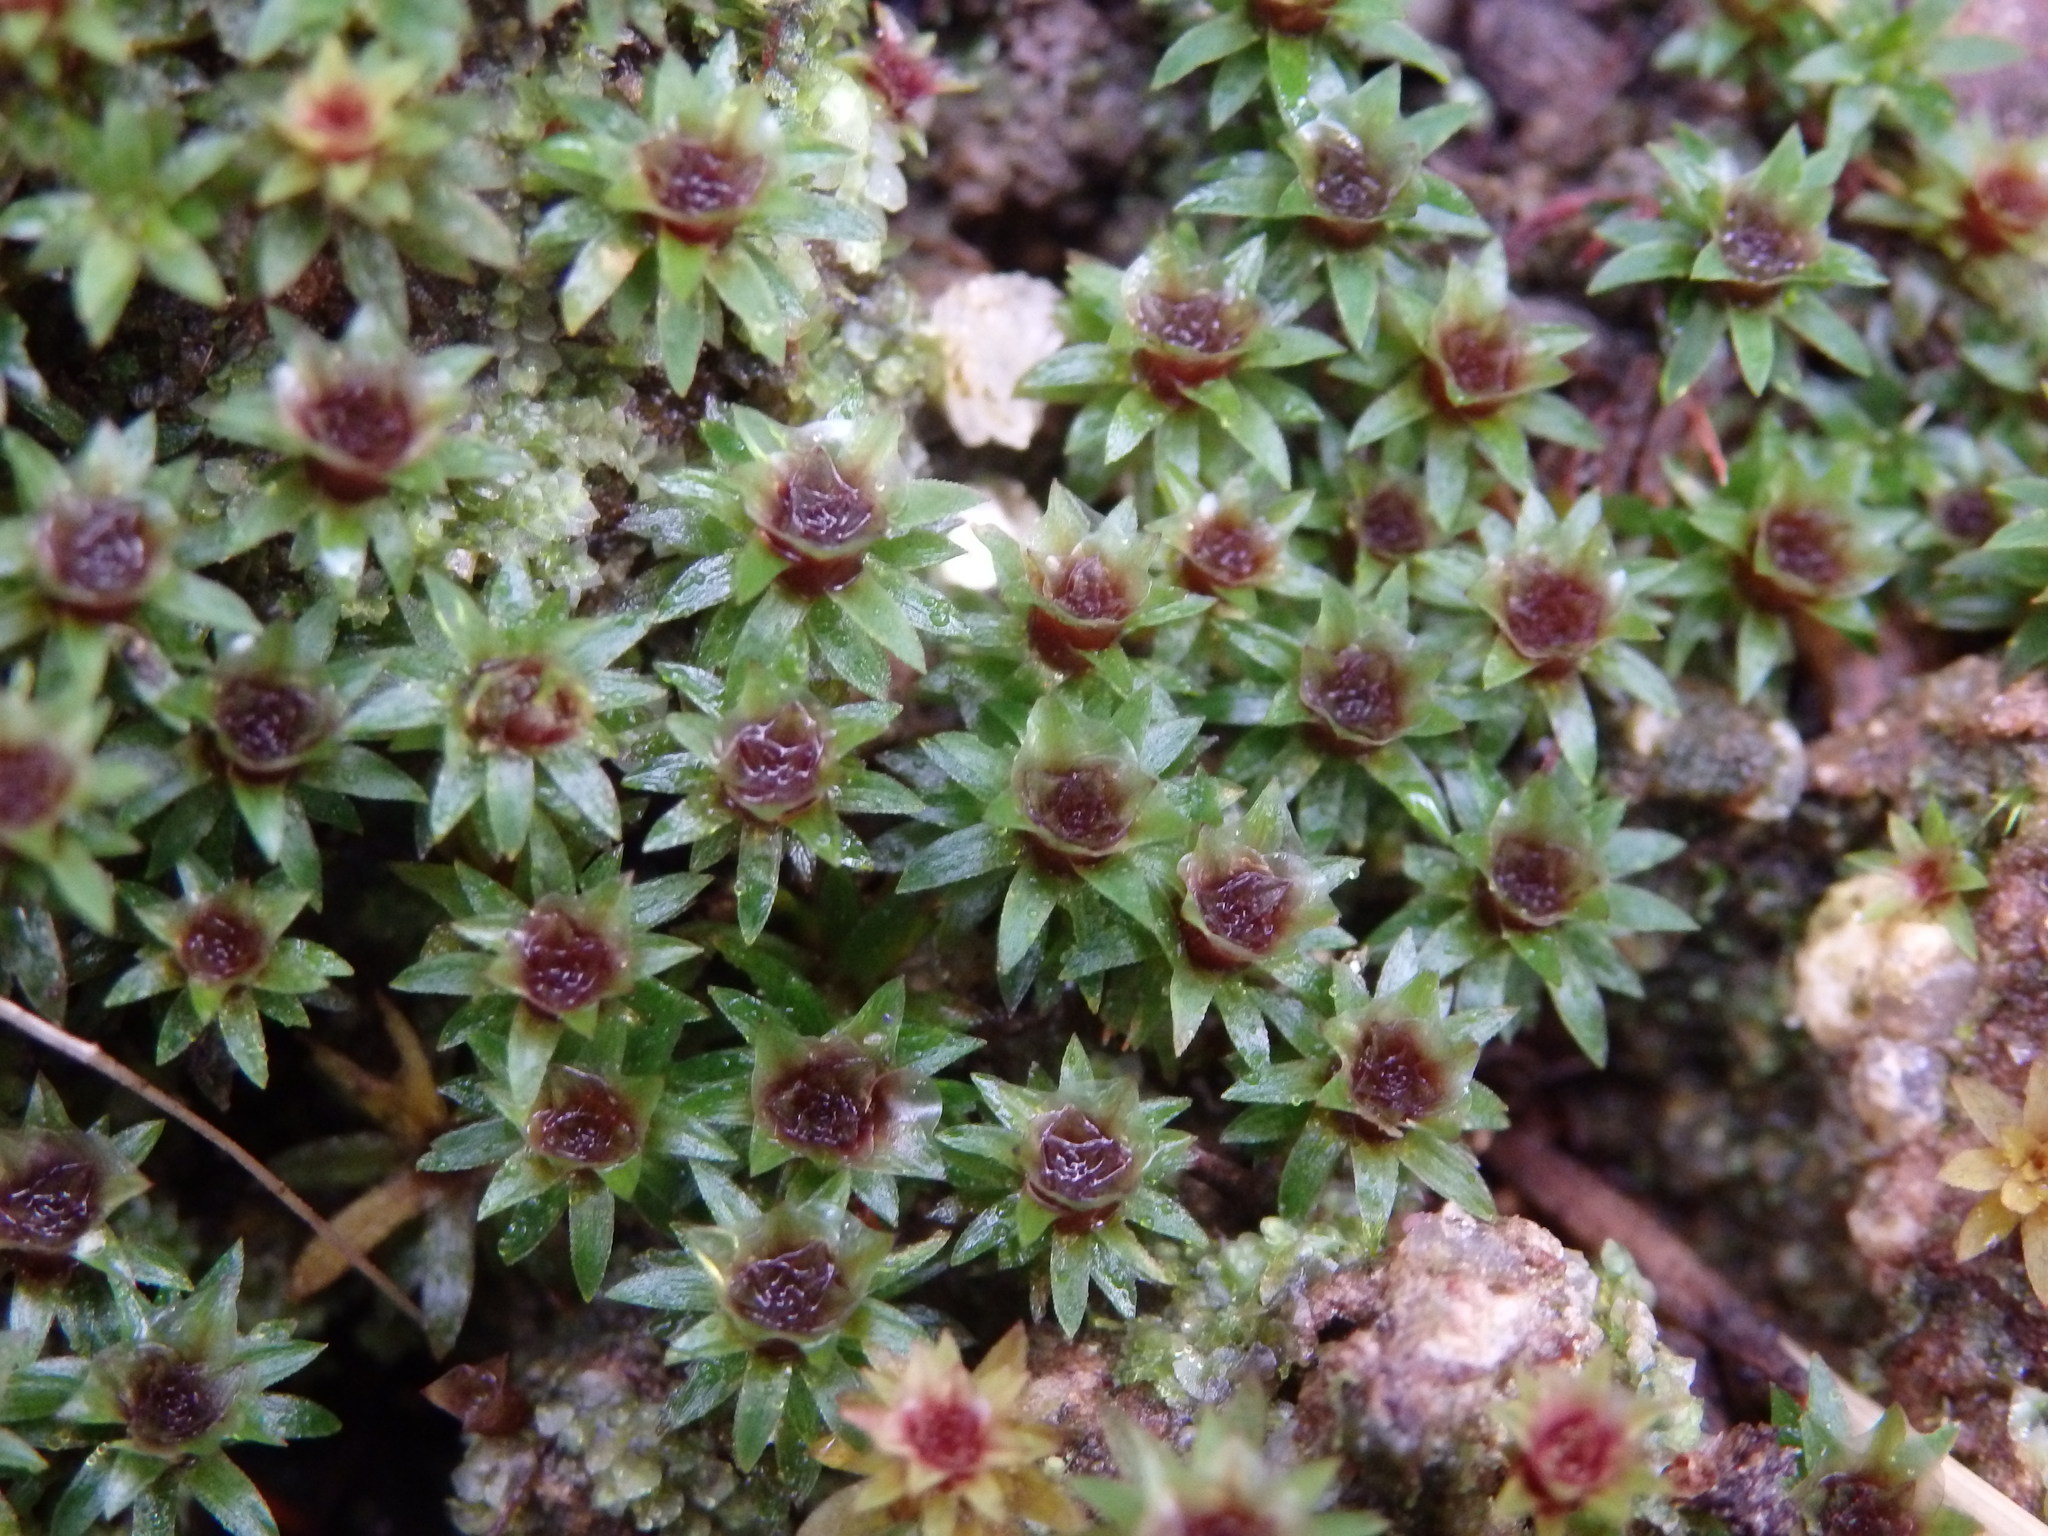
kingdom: Plantae
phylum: Bryophyta
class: Polytrichopsida
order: Polytrichales
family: Polytrichaceae
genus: Pogonatum
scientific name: Pogonatum aloides
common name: Aloe haircap
